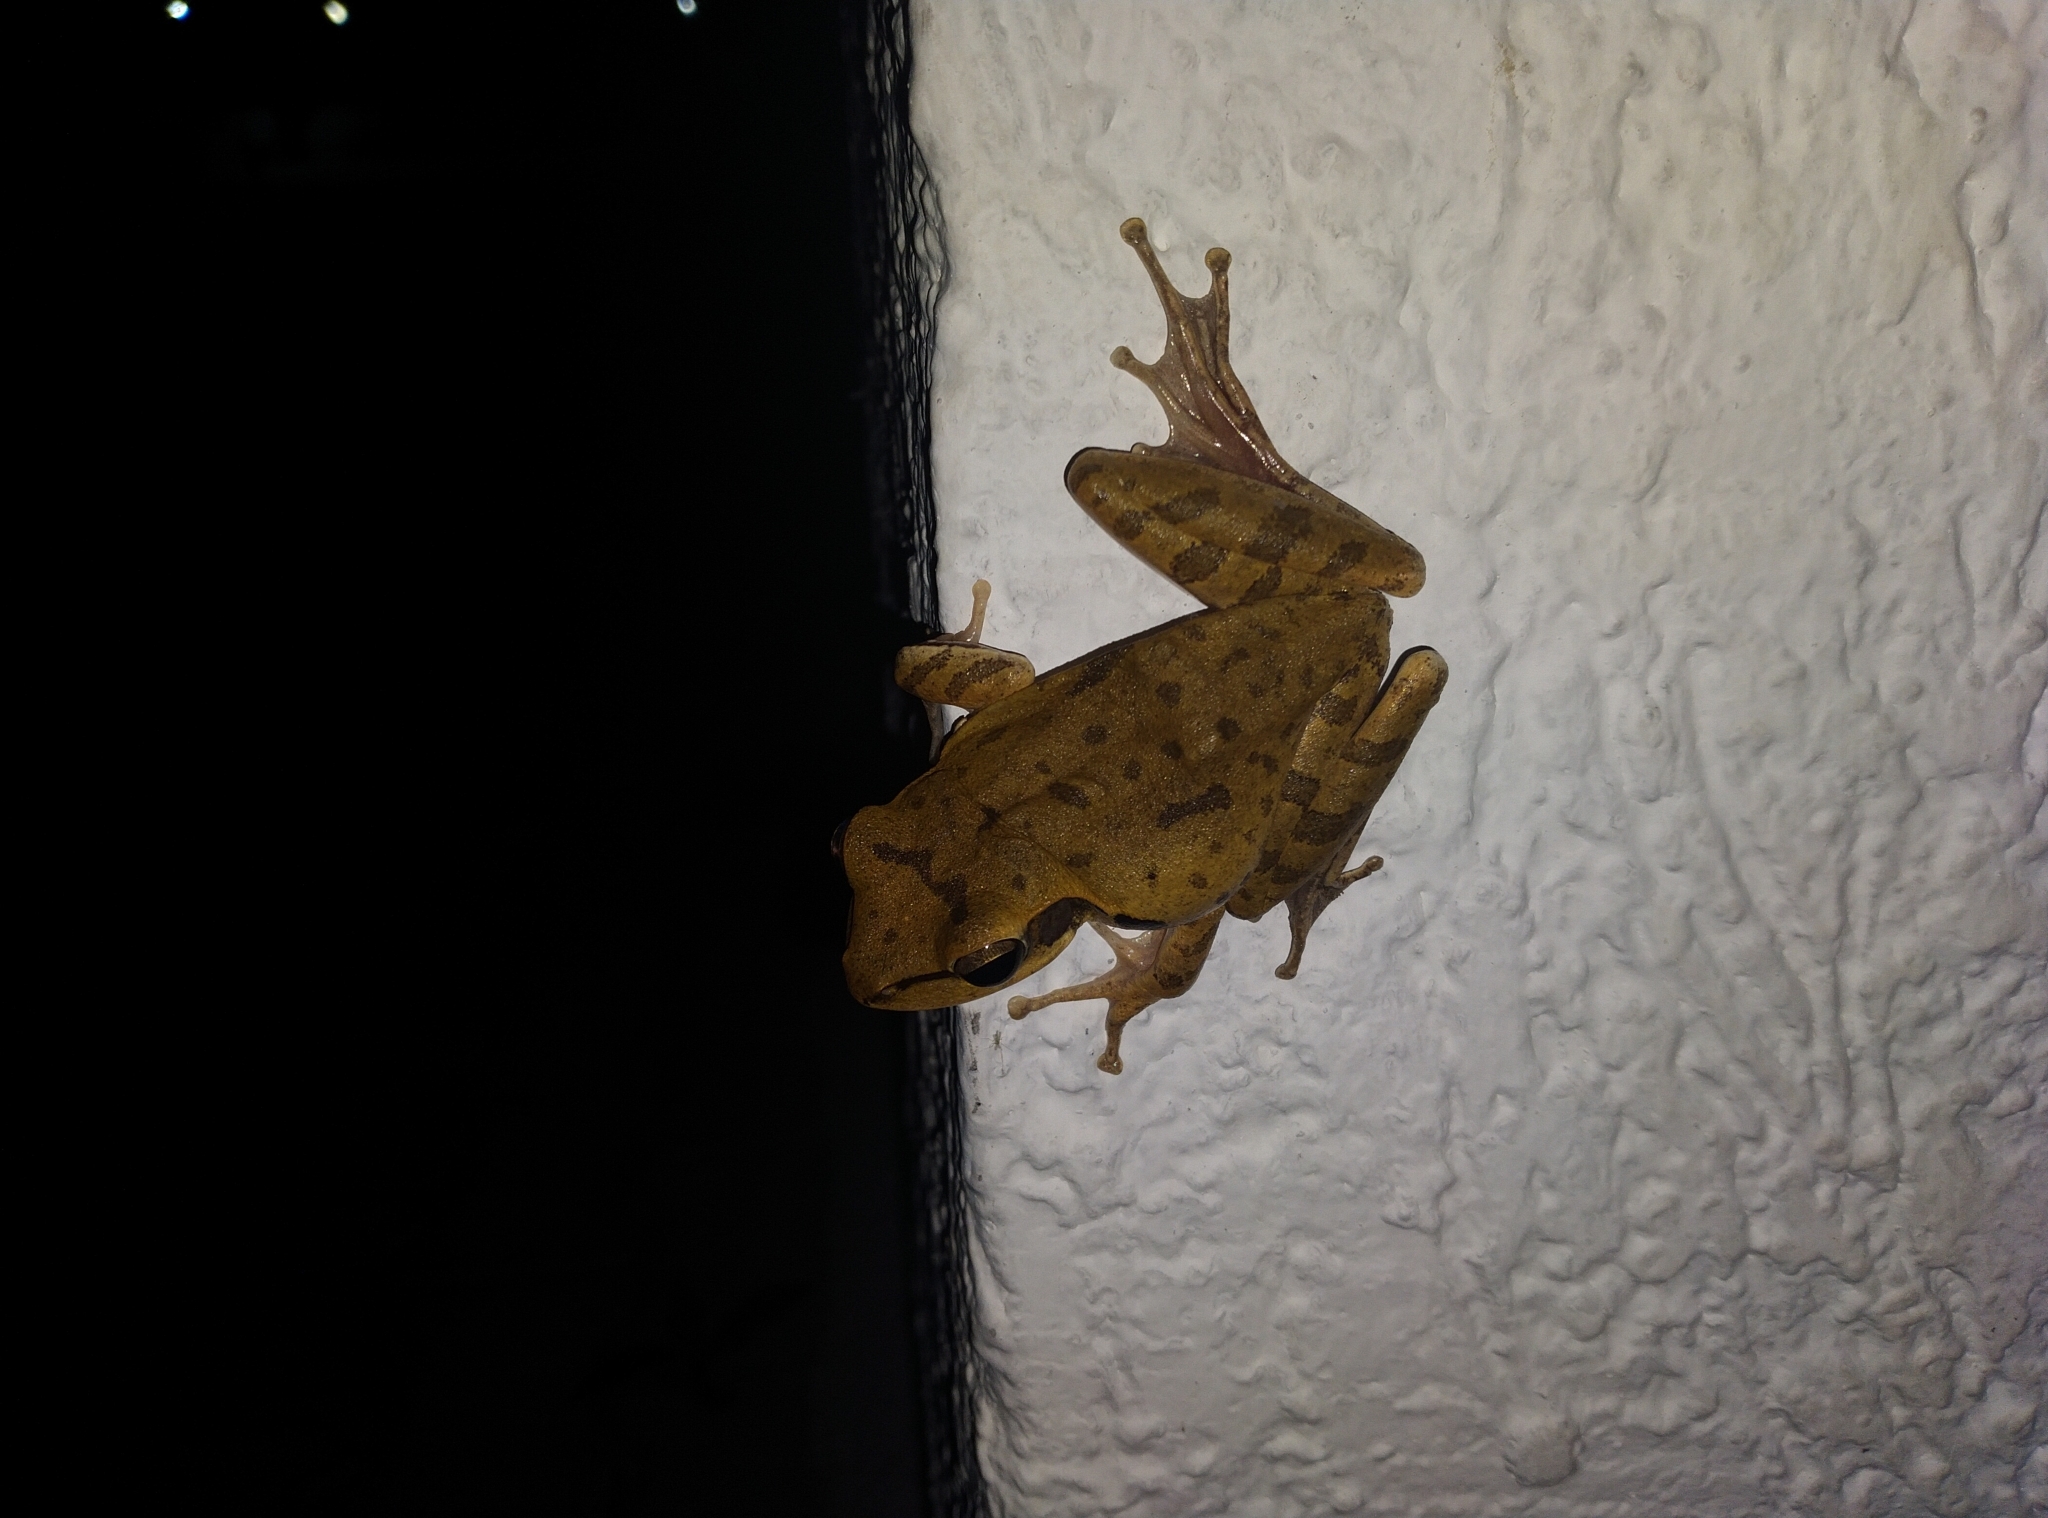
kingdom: Animalia
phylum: Chordata
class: Amphibia
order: Anura
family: Rhacophoridae
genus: Polypedates
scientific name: Polypedates maculatus
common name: Himalayan tree frog
